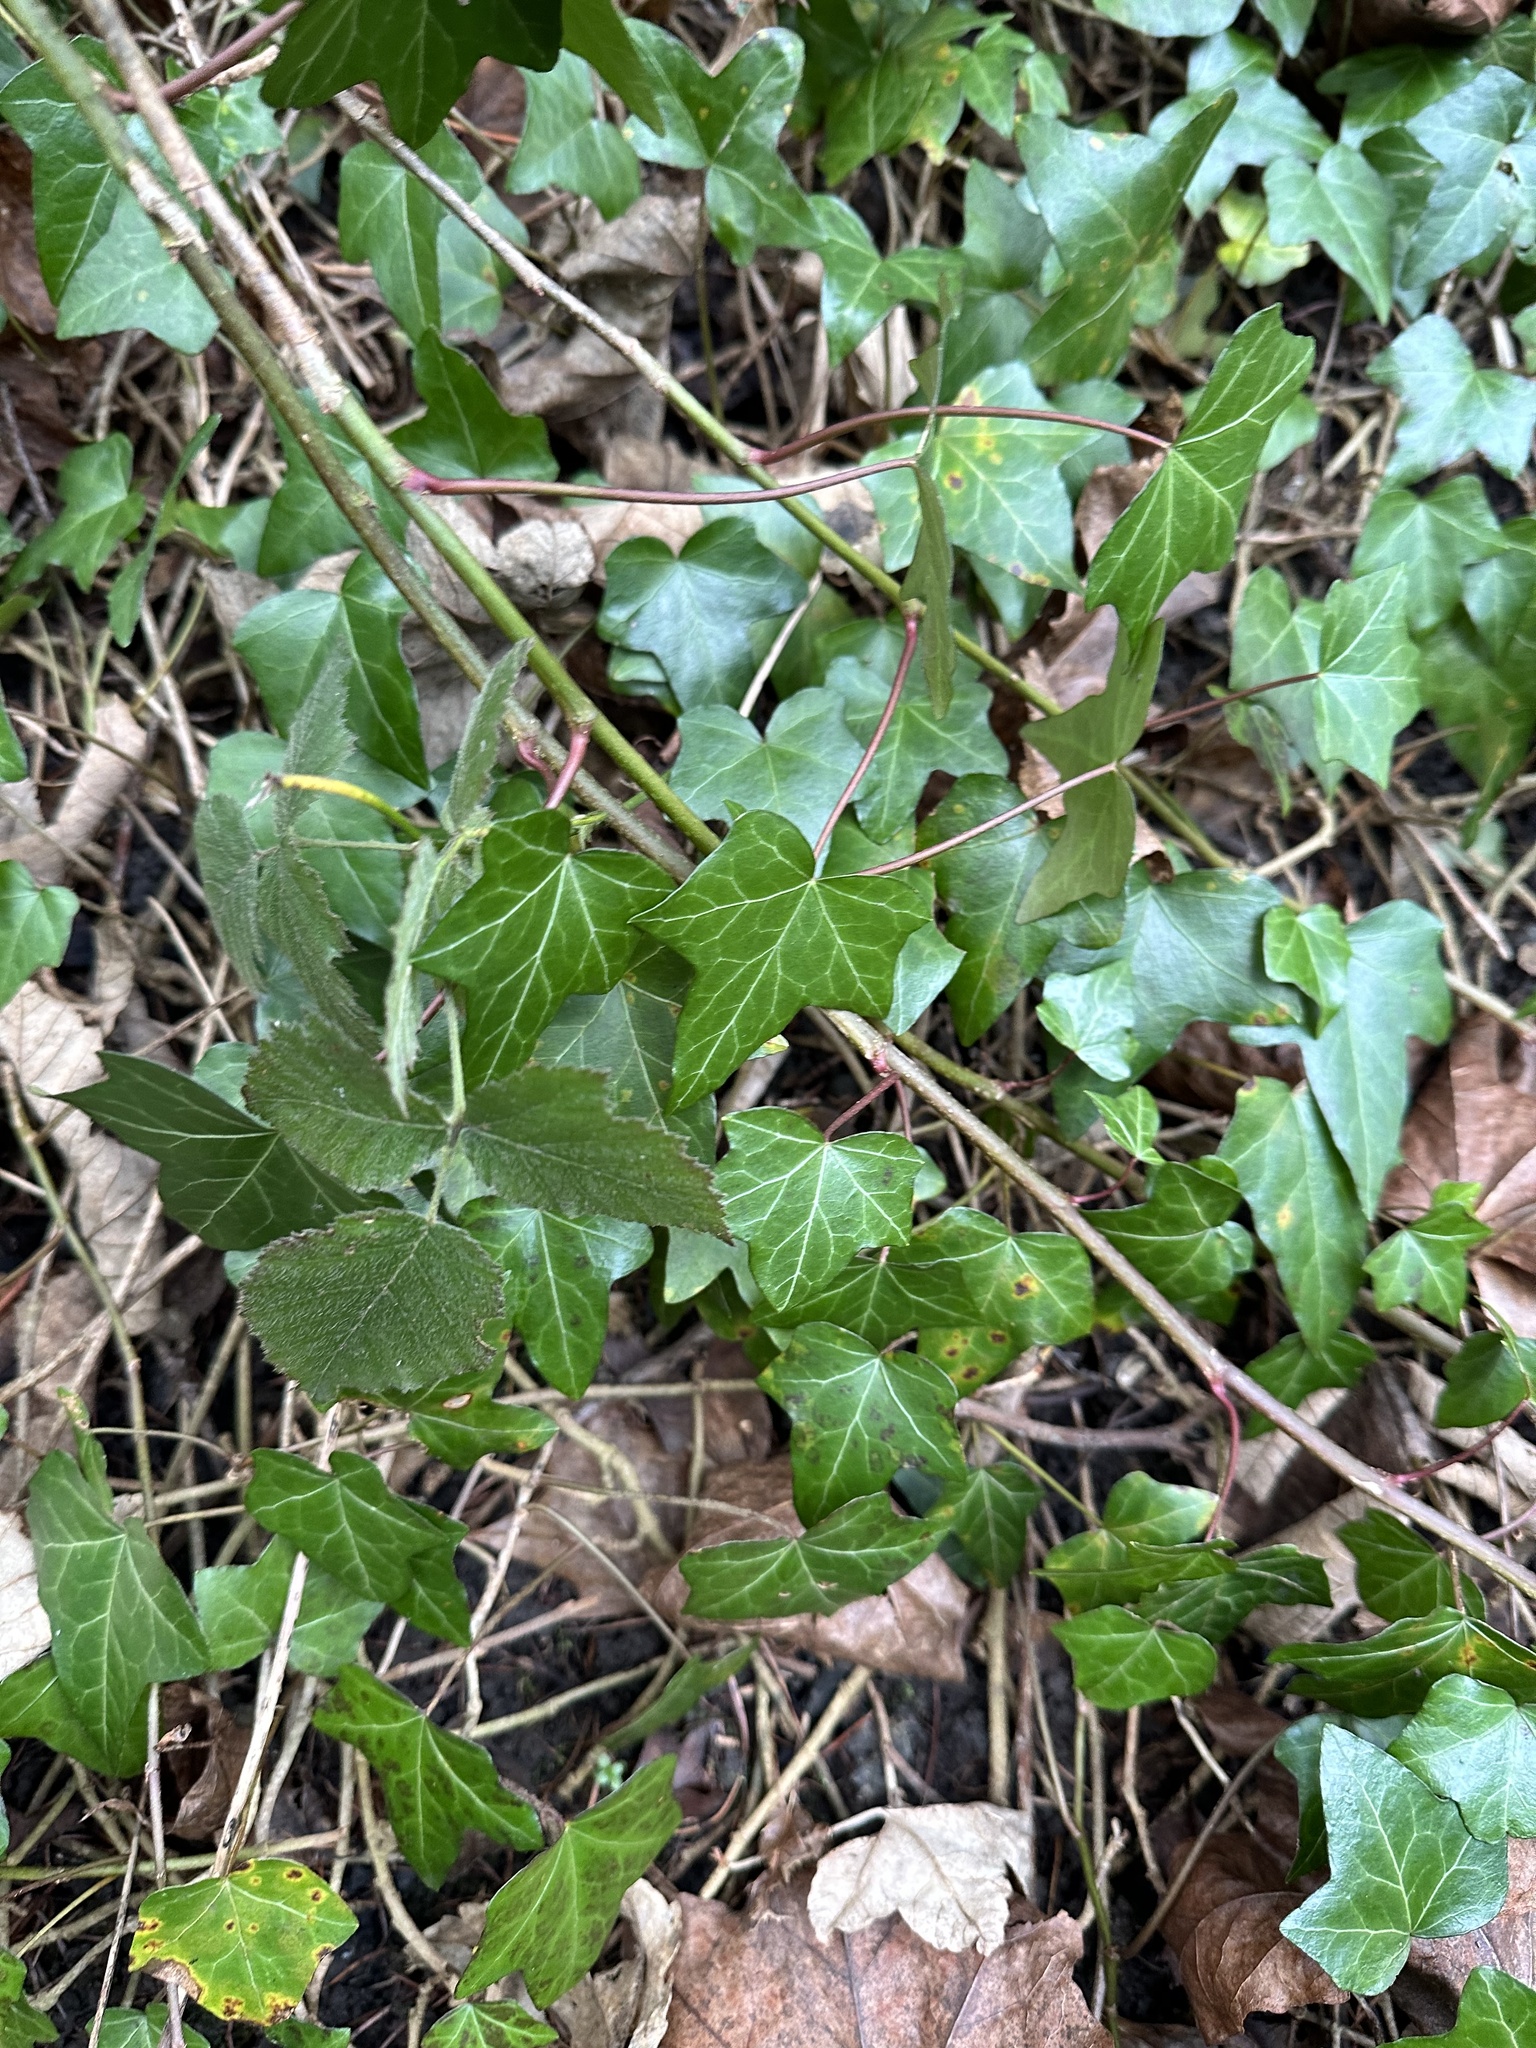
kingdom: Plantae
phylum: Tracheophyta
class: Magnoliopsida
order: Apiales
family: Araliaceae
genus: Hedera
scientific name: Hedera helix
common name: Ivy
